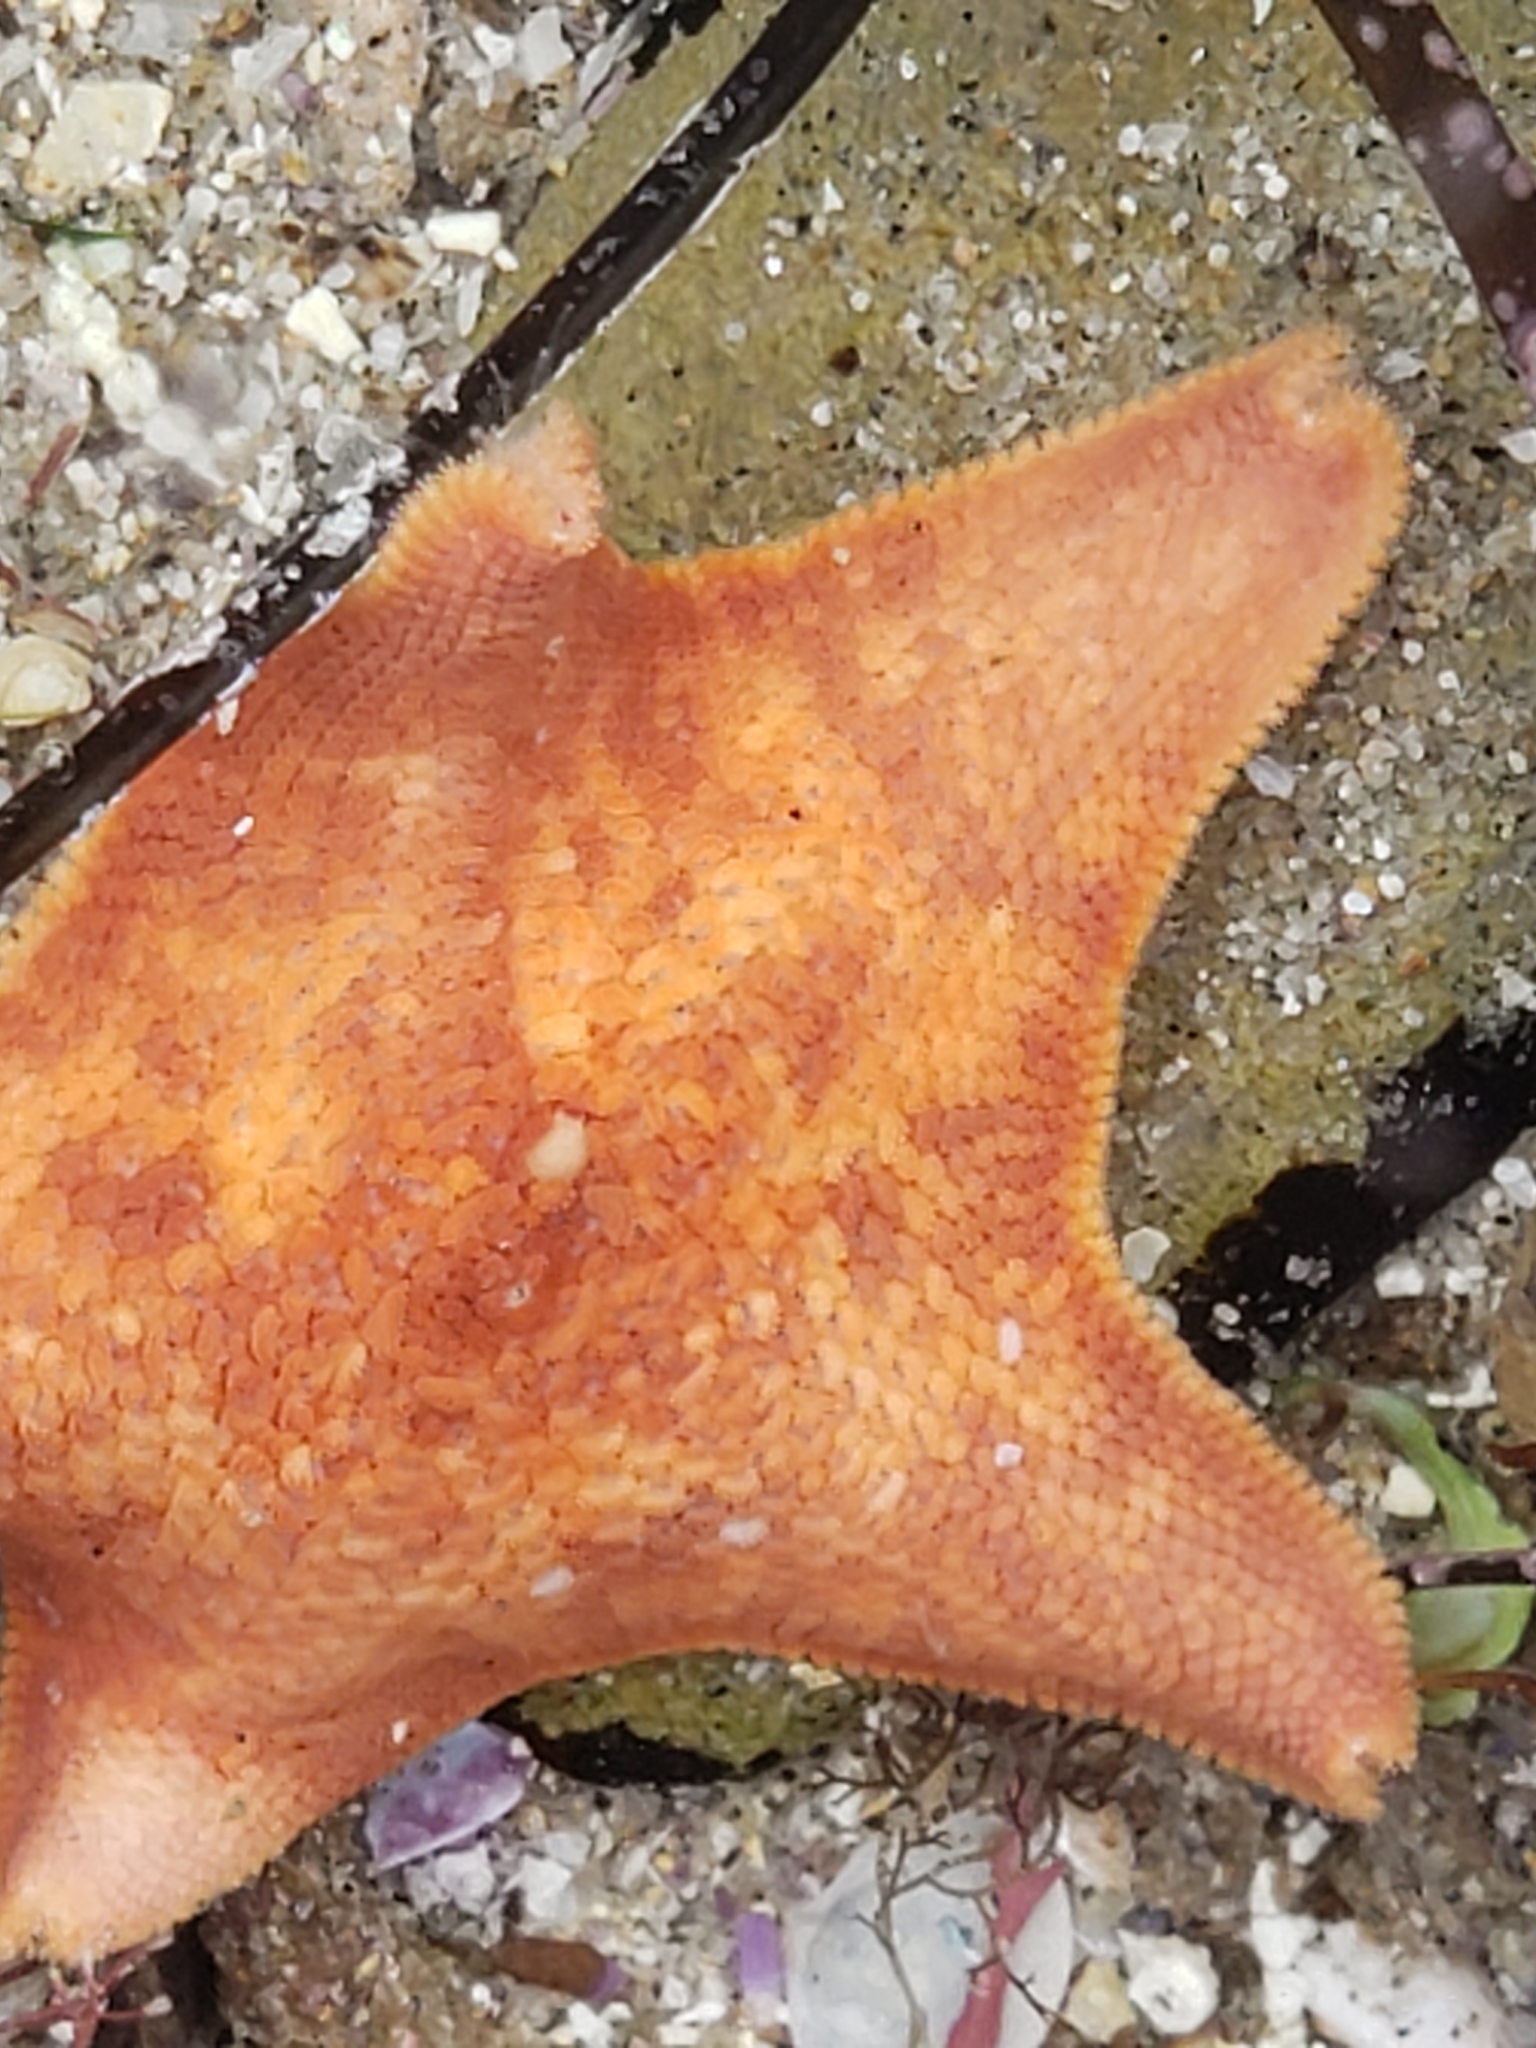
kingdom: Animalia
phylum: Echinodermata
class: Asteroidea
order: Valvatida
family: Asterinidae
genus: Patiria
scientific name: Patiria miniata
